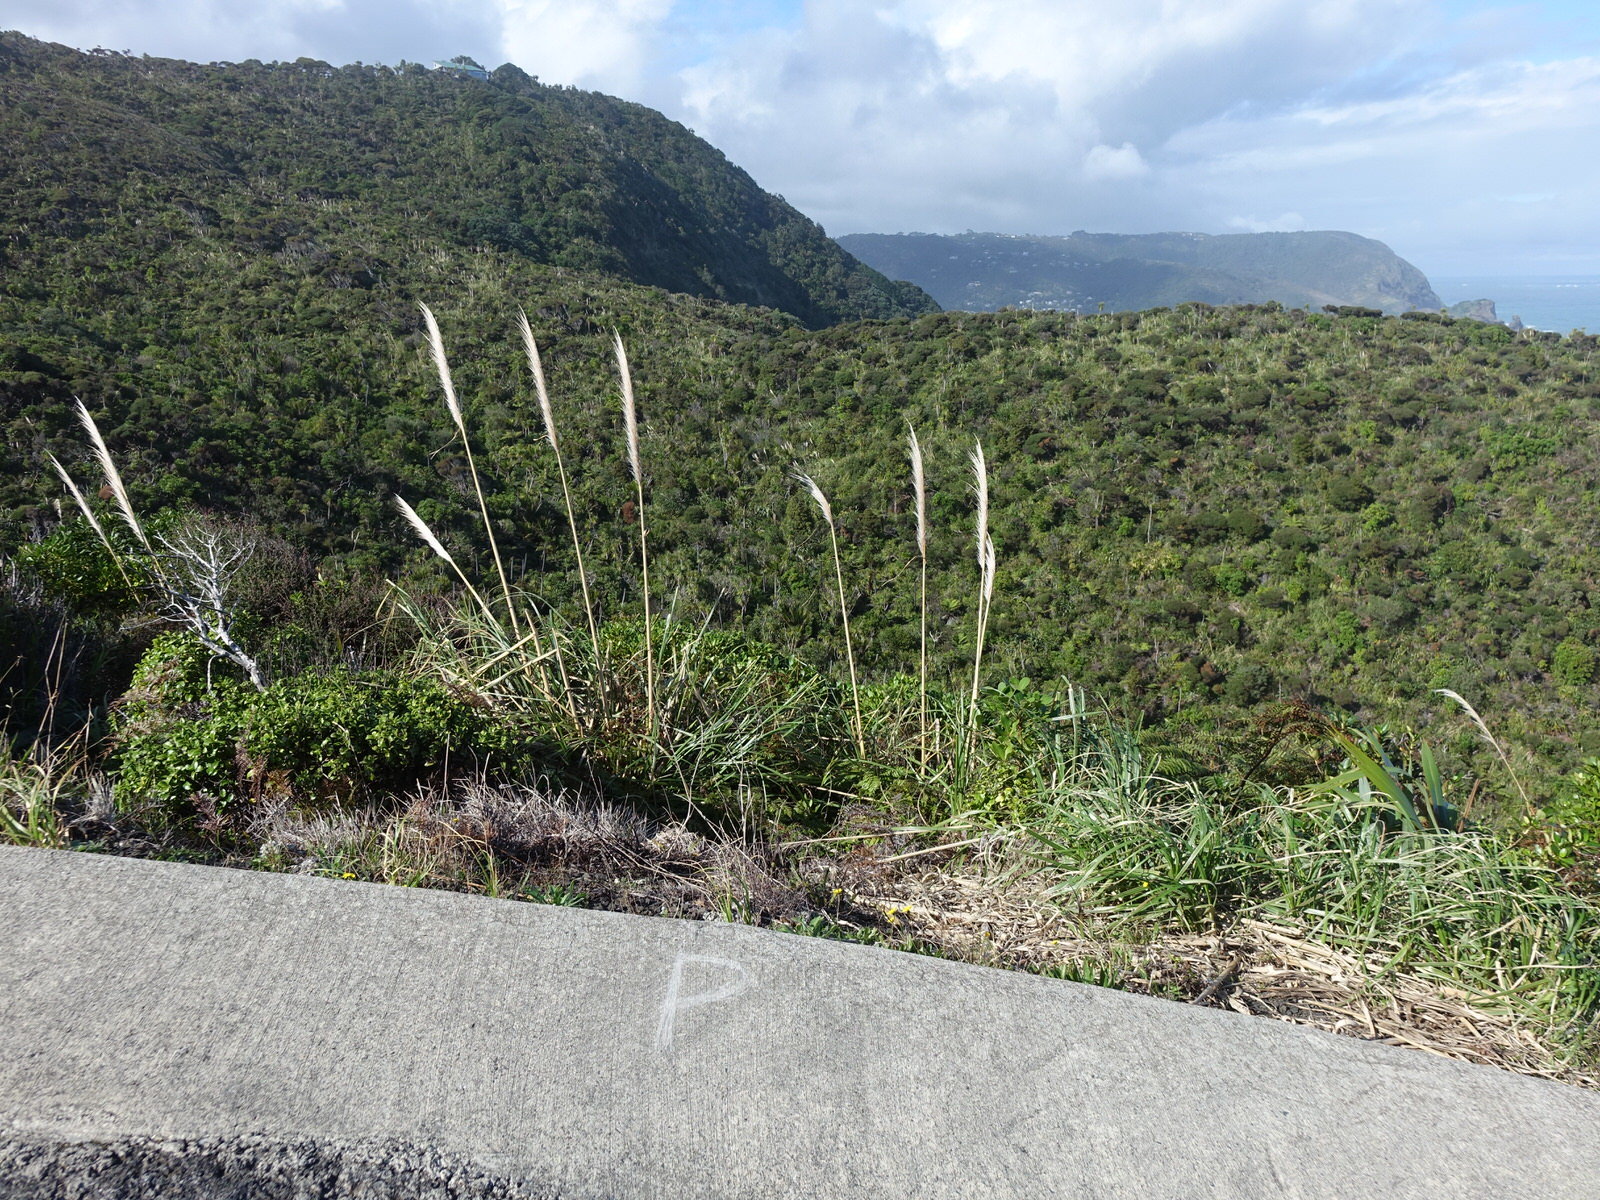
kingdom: Plantae
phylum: Tracheophyta
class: Liliopsida
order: Poales
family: Poaceae
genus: Cortaderia
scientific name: Cortaderia jubata
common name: Purple pampas grass
